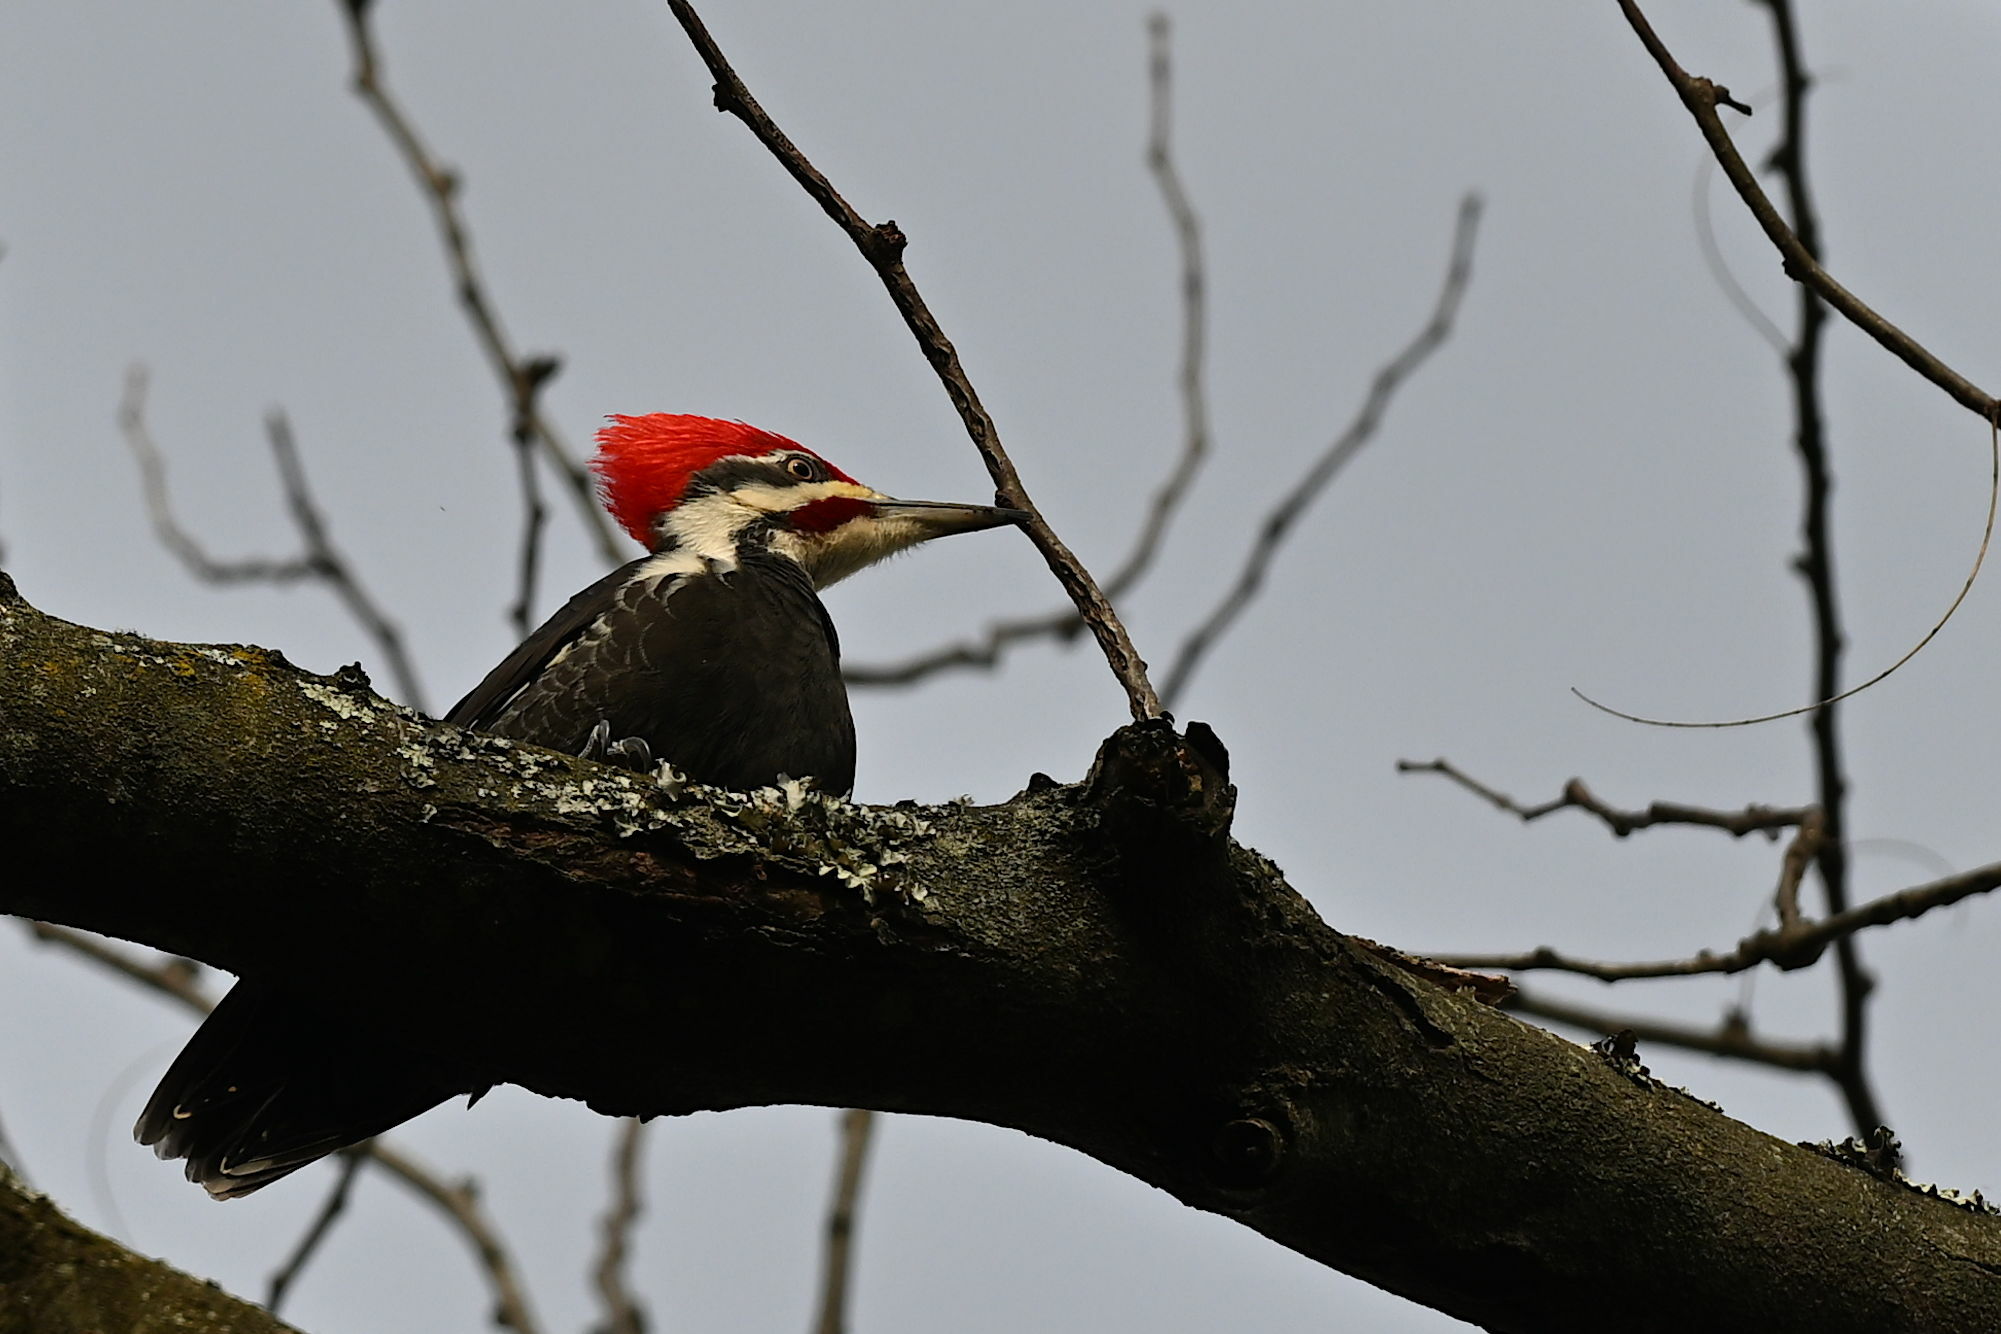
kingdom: Animalia
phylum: Chordata
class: Aves
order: Piciformes
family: Picidae
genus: Dryocopus
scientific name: Dryocopus pileatus
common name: Pileated woodpecker
